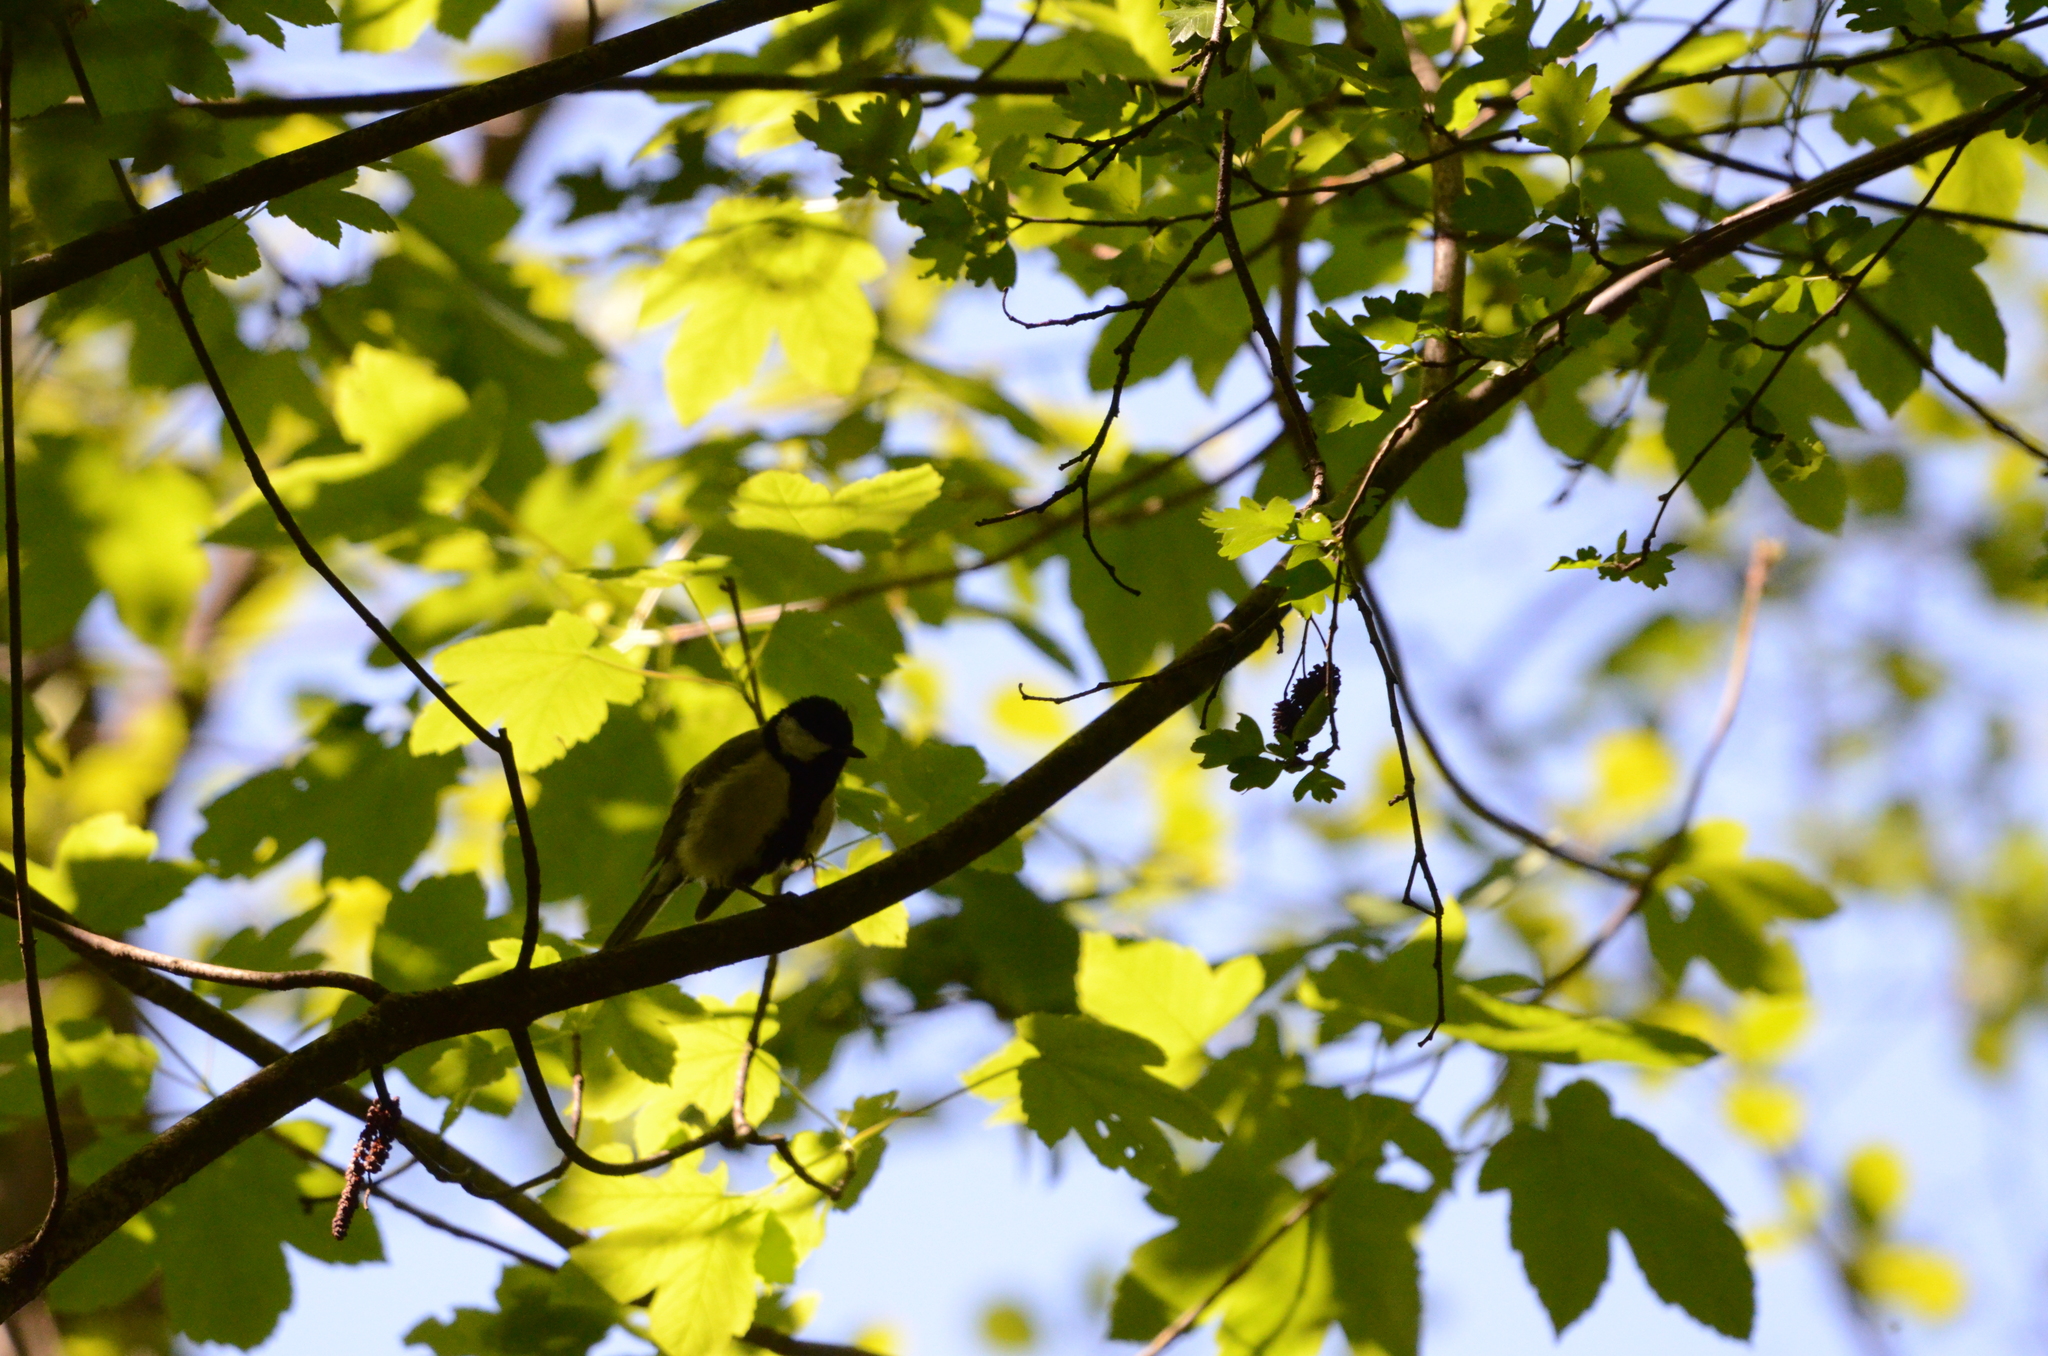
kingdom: Animalia
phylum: Chordata
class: Aves
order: Passeriformes
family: Paridae
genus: Parus
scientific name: Parus major
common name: Great tit
